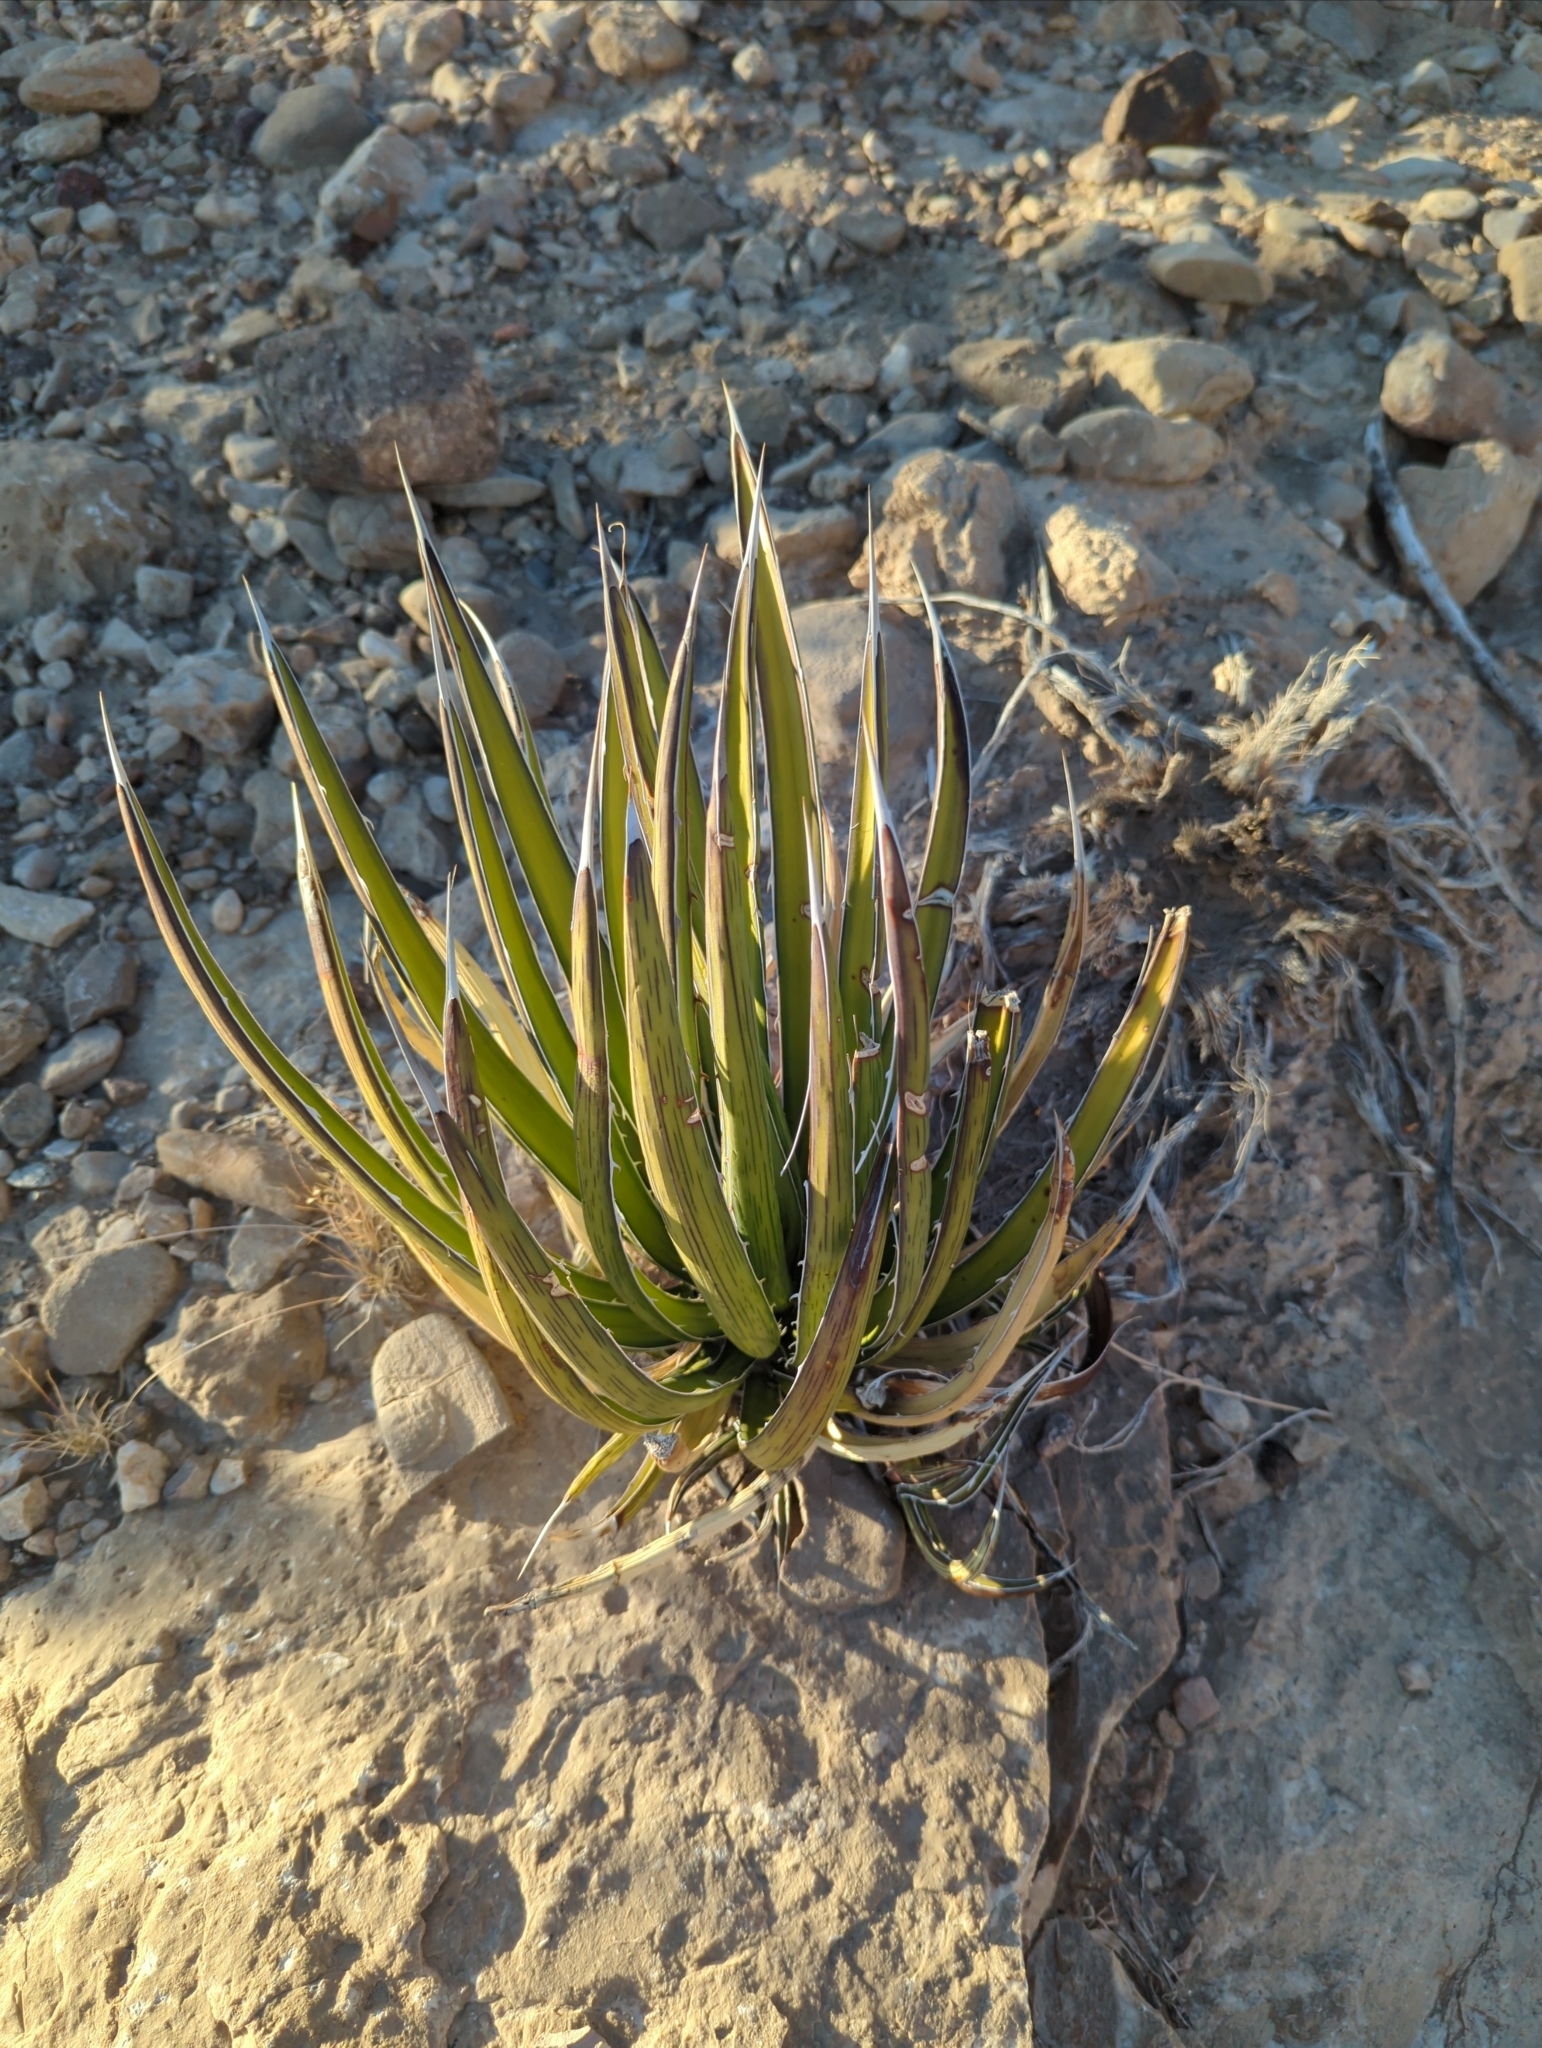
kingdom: Plantae
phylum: Tracheophyta
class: Liliopsida
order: Asparagales
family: Asparagaceae
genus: Agave
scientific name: Agave lechuguilla
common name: Lecheguilla agave
